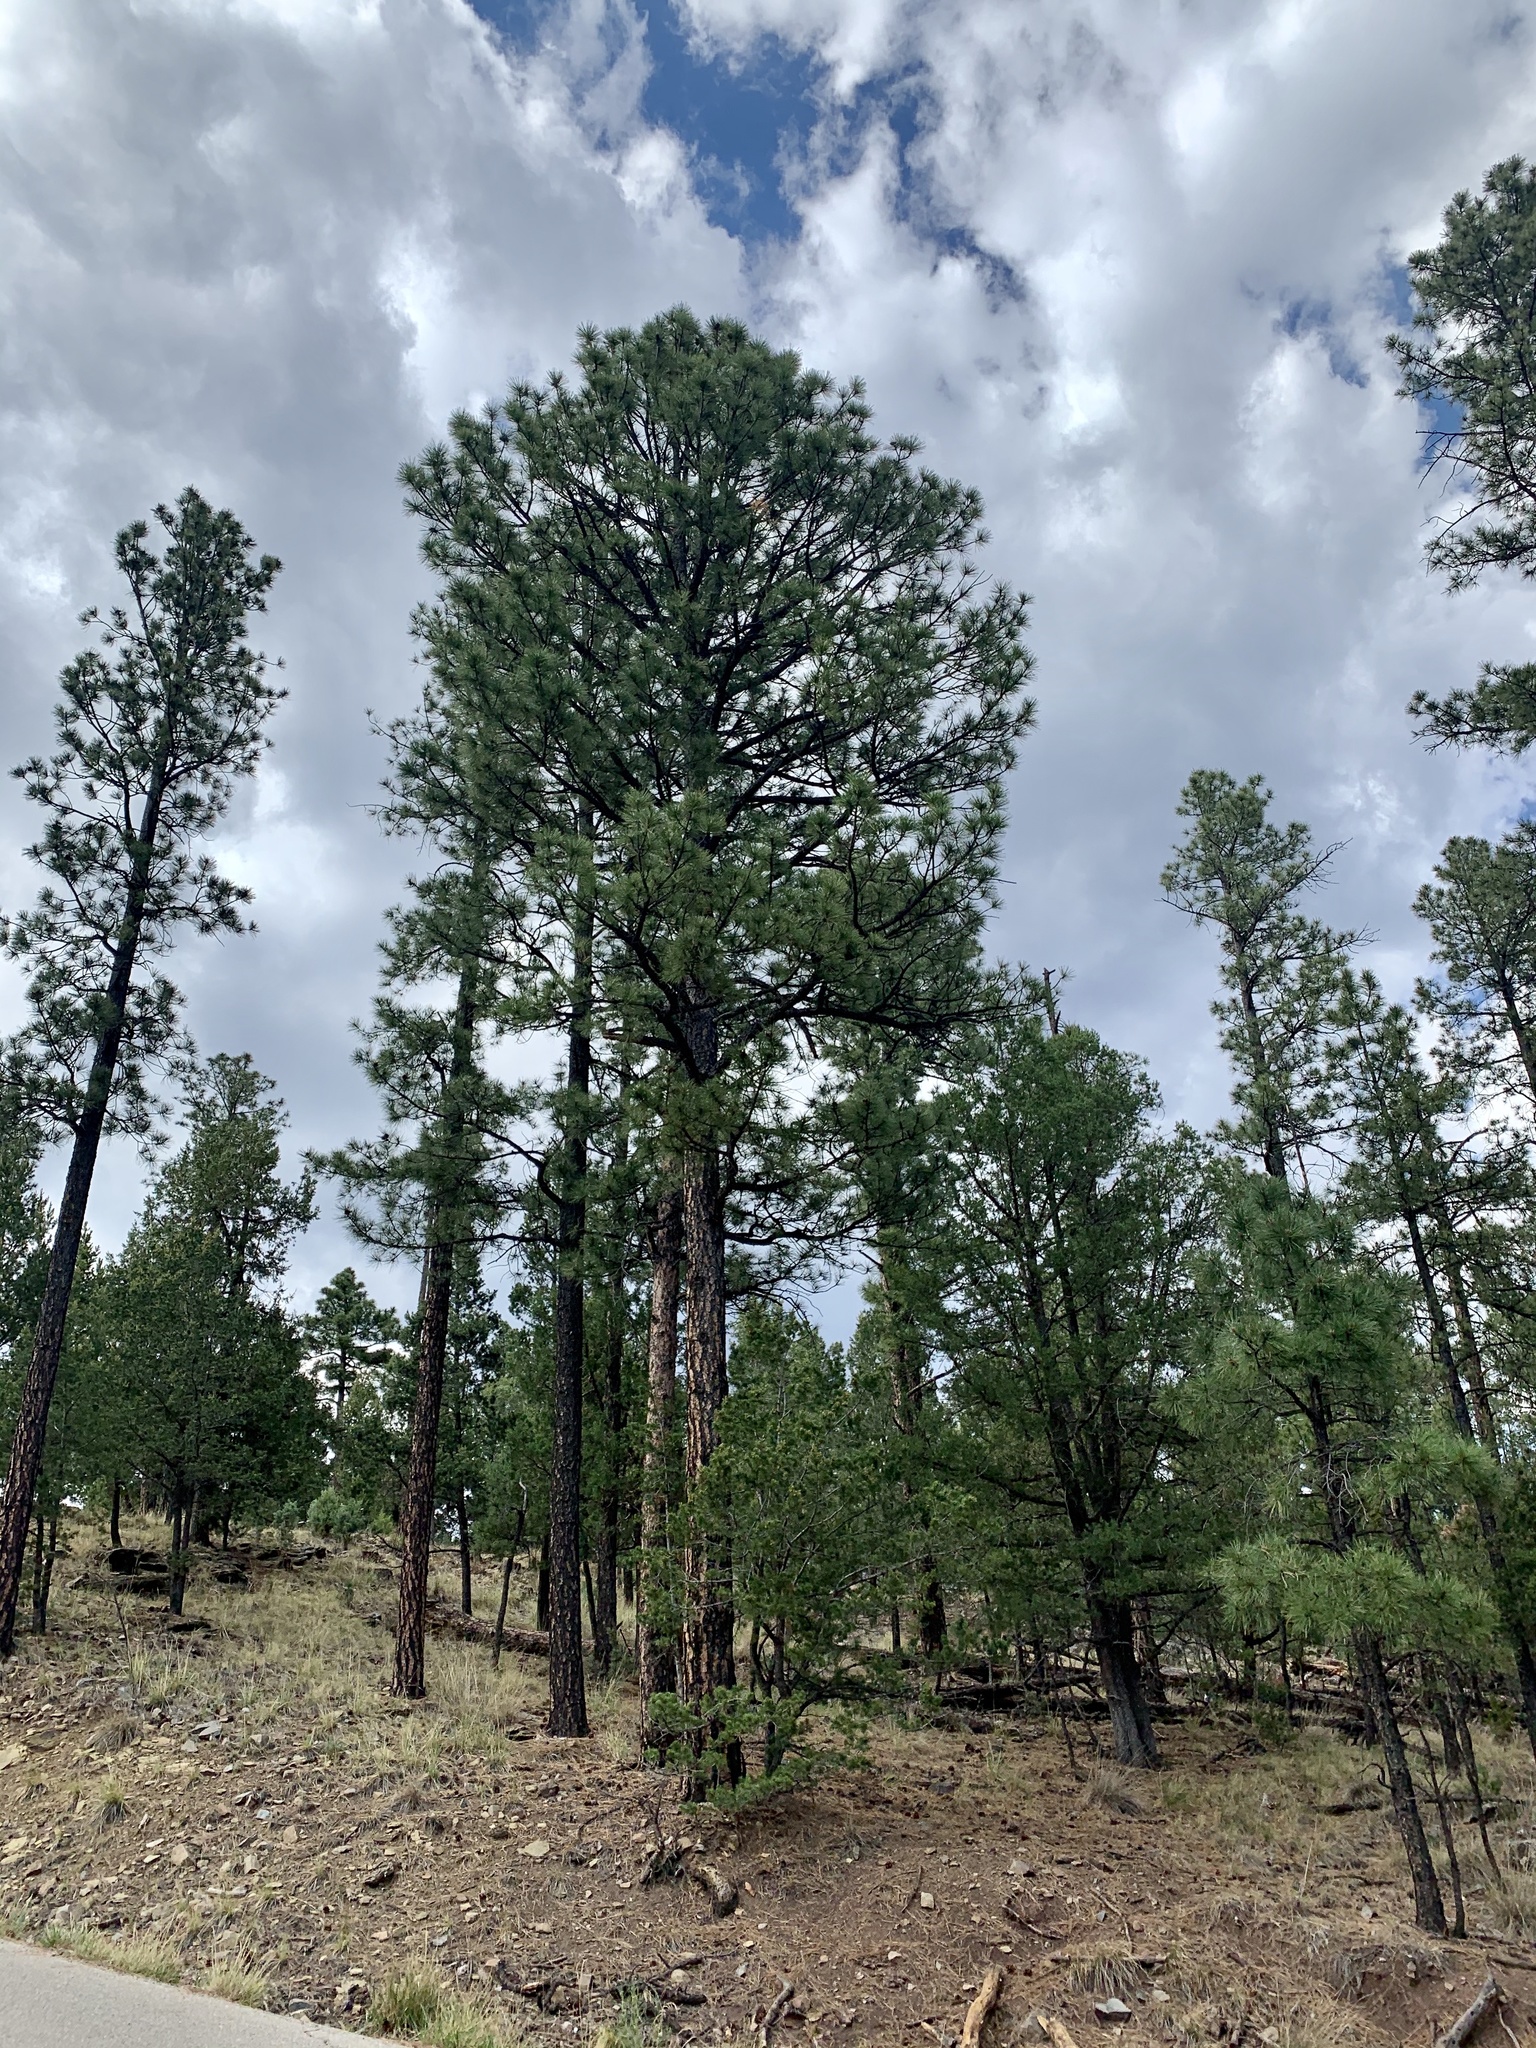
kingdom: Plantae
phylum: Tracheophyta
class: Pinopsida
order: Pinales
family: Pinaceae
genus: Pinus
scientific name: Pinus ponderosa
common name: Western yellow-pine
